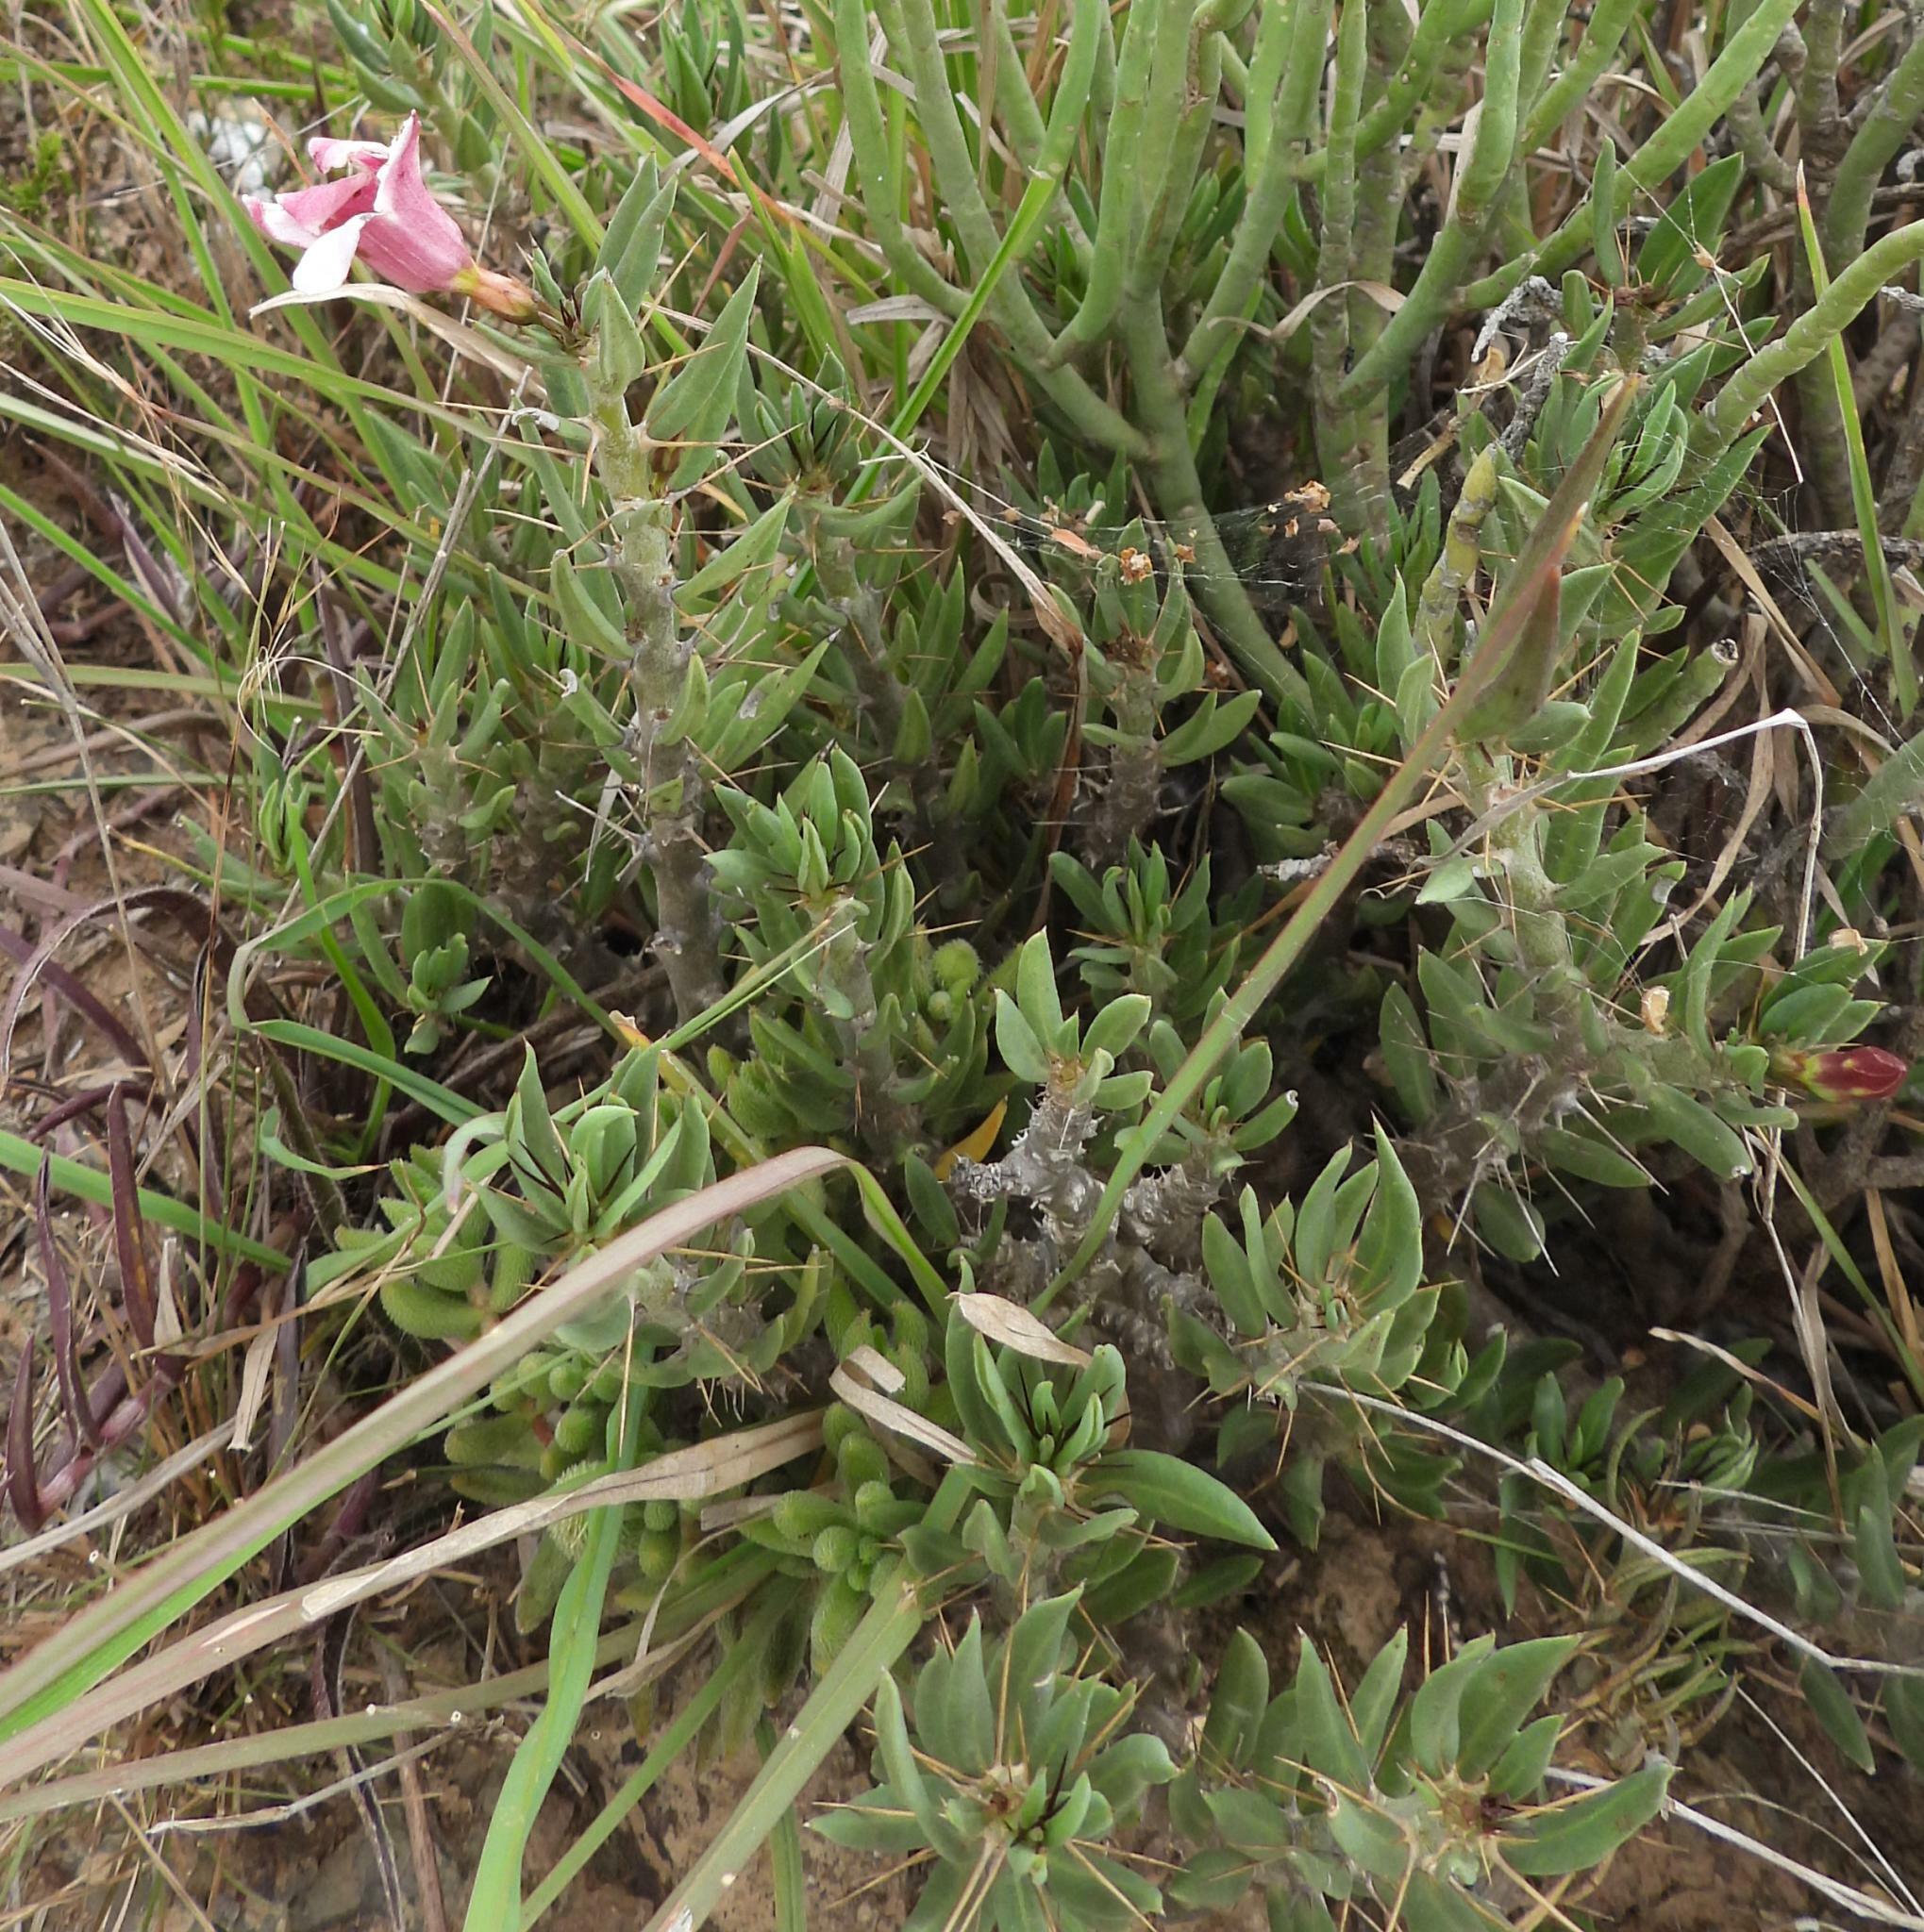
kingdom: Plantae
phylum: Tracheophyta
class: Magnoliopsida
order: Gentianales
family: Apocynaceae
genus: Pachypodium
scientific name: Pachypodium bispinosum
